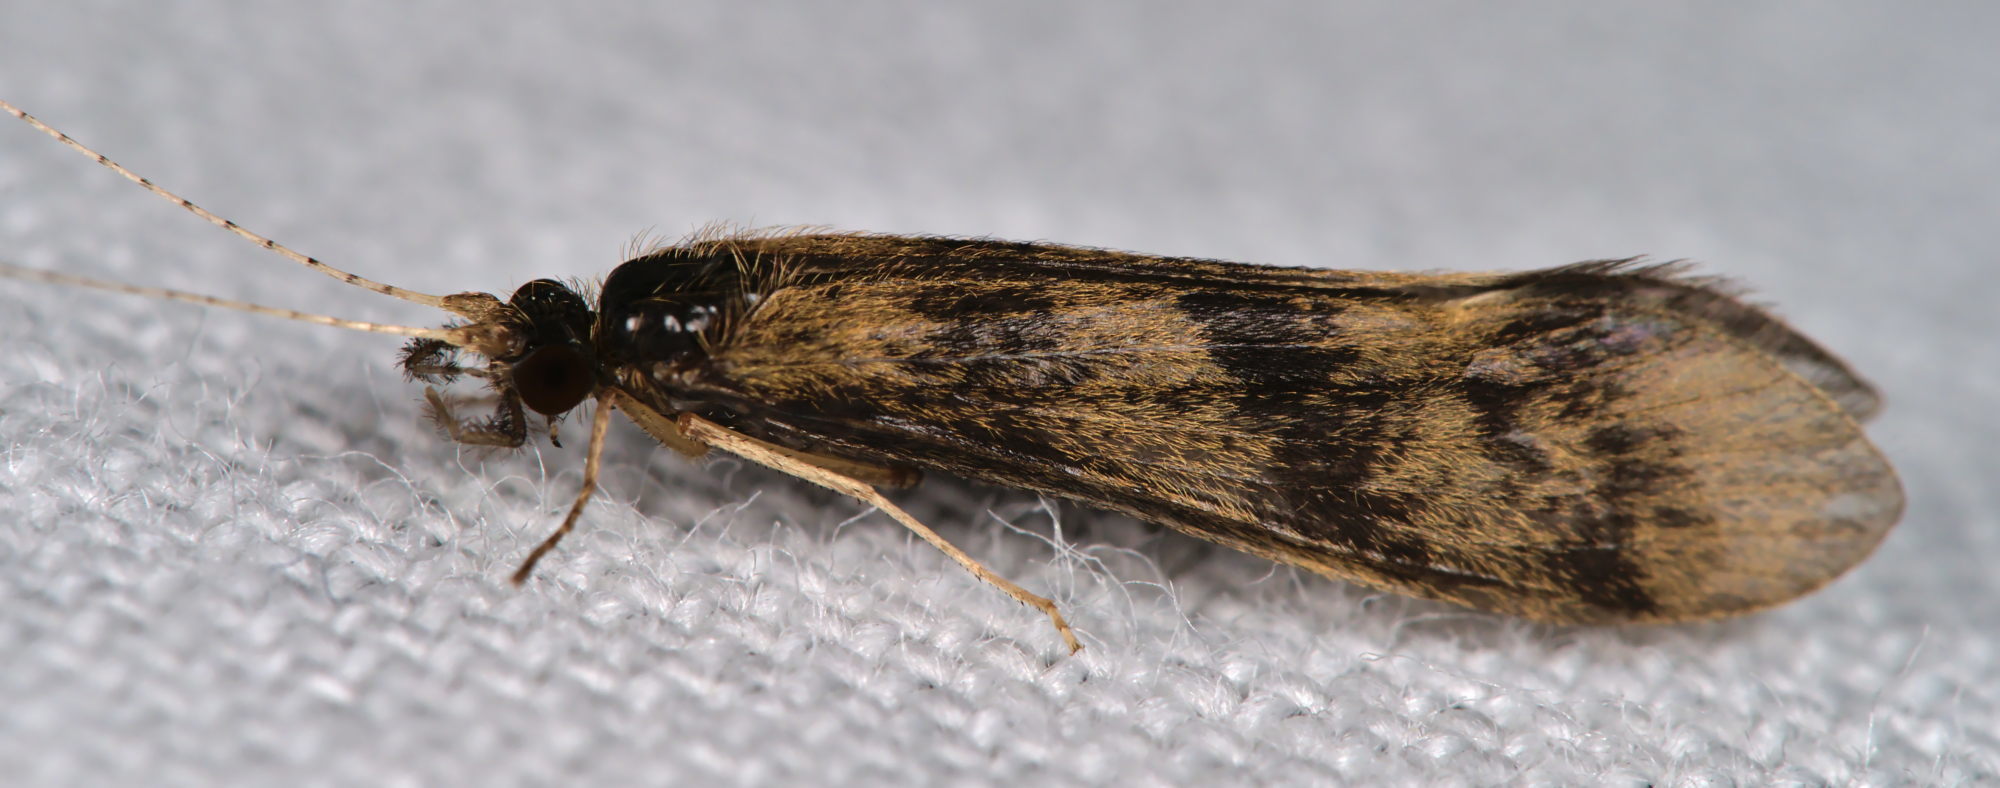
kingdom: Animalia
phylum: Arthropoda
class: Insecta
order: Trichoptera
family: Leptoceridae
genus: Mystacides
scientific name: Mystacides longicornis
